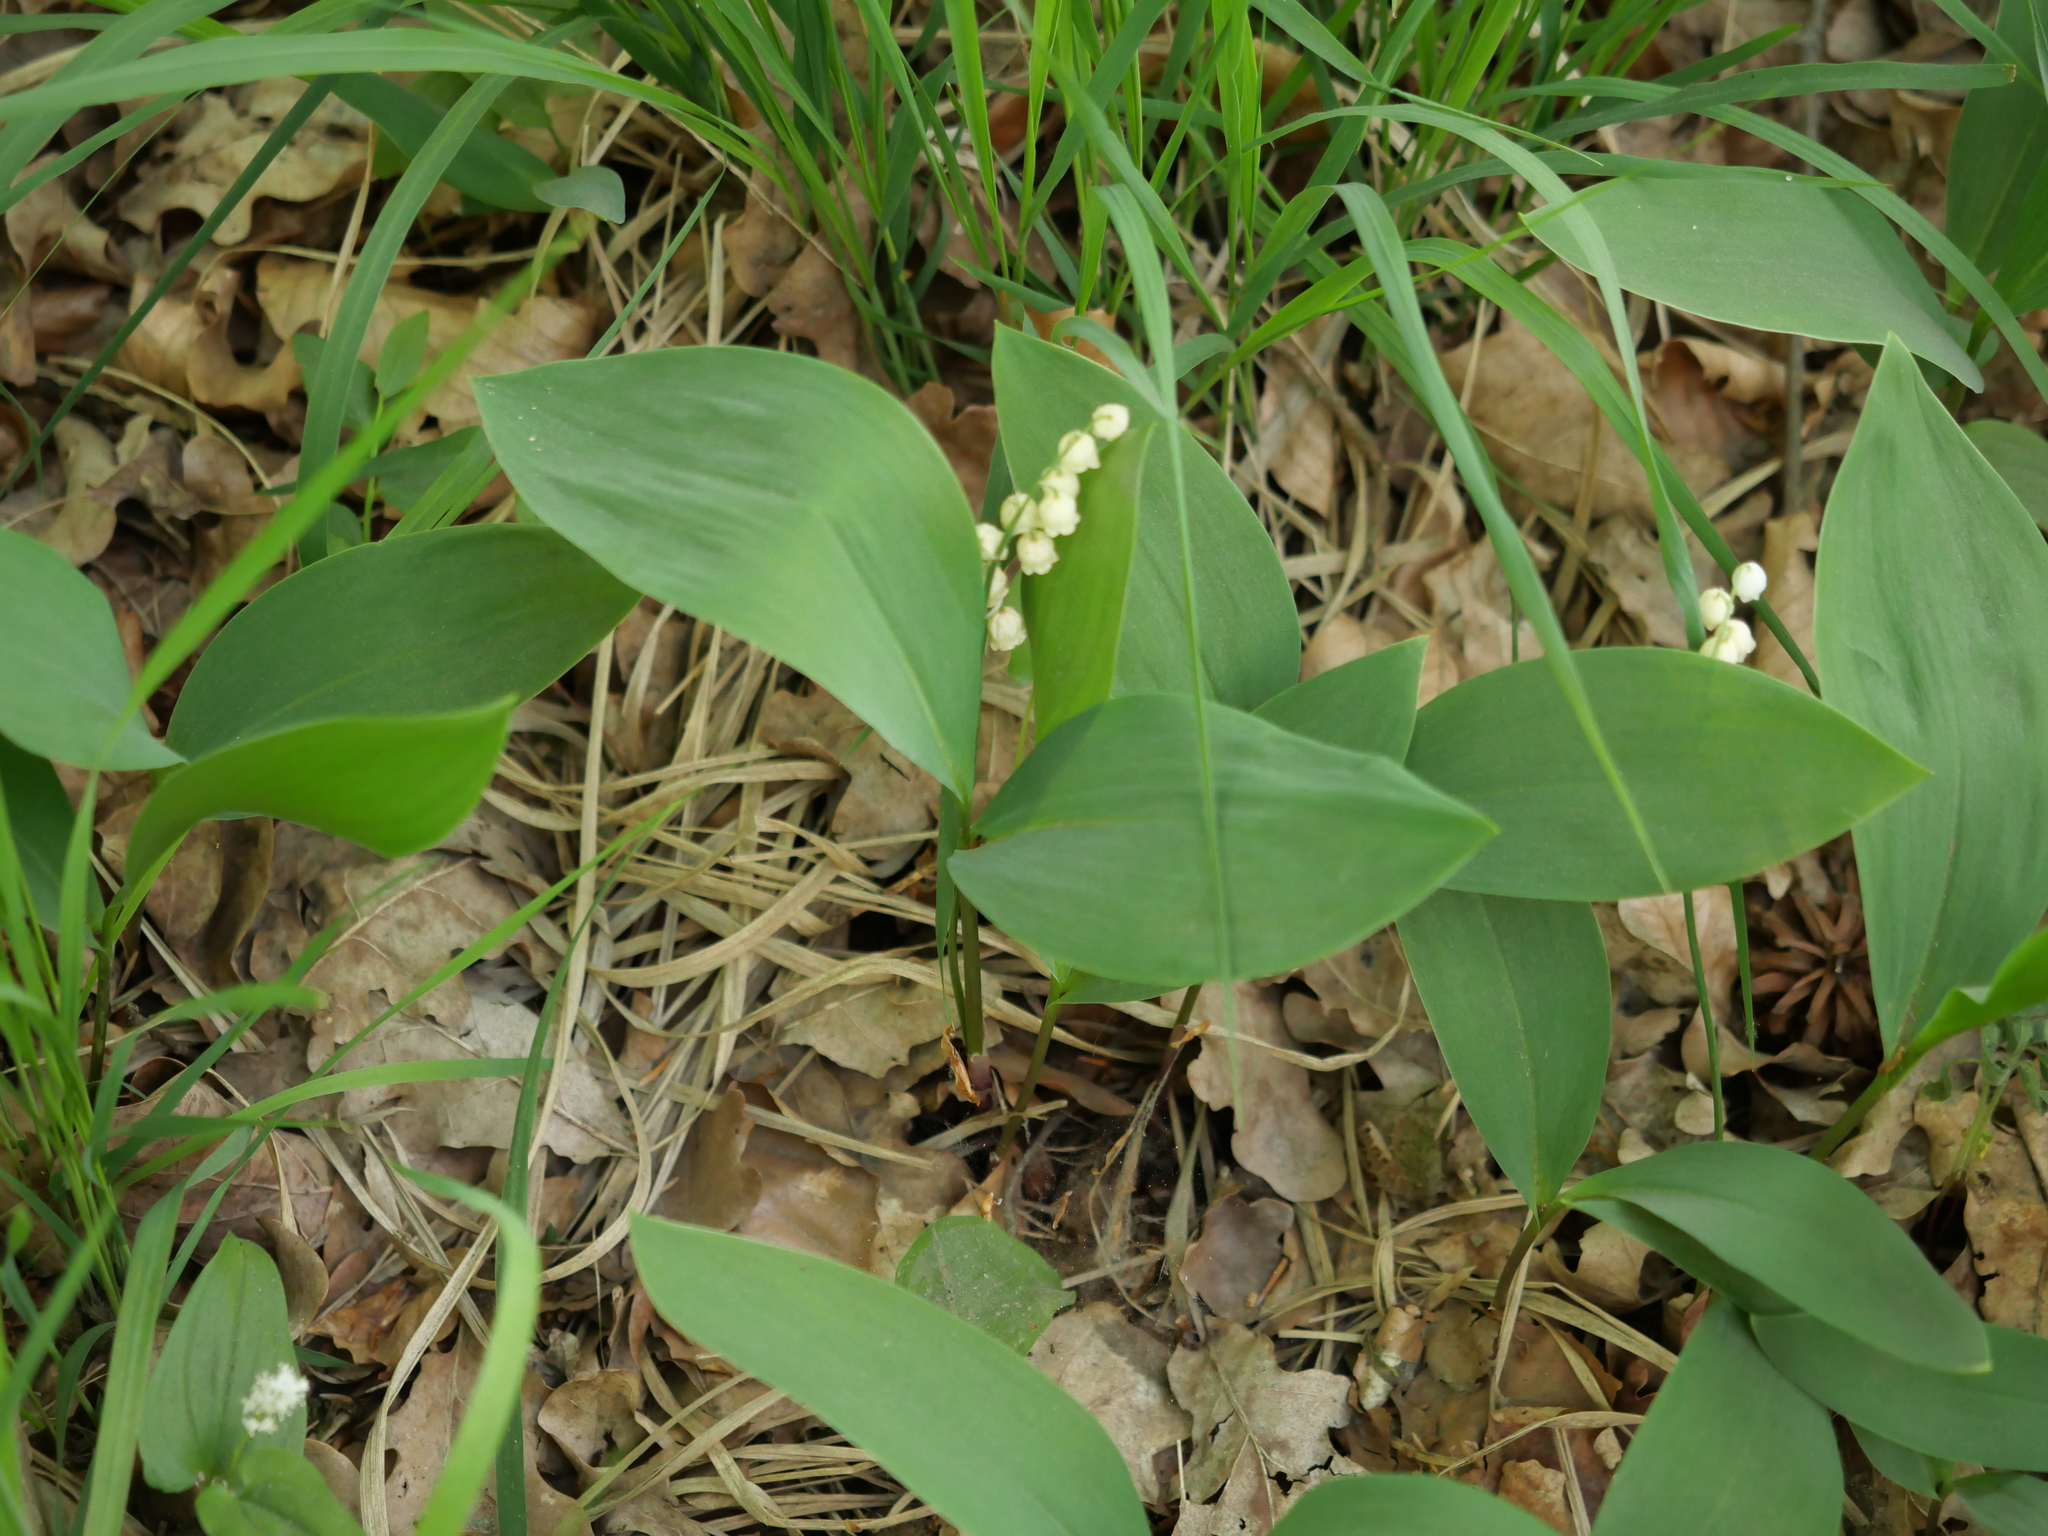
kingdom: Plantae
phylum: Tracheophyta
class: Liliopsida
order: Asparagales
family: Asparagaceae
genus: Convallaria
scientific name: Convallaria majalis
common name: Lily-of-the-valley
